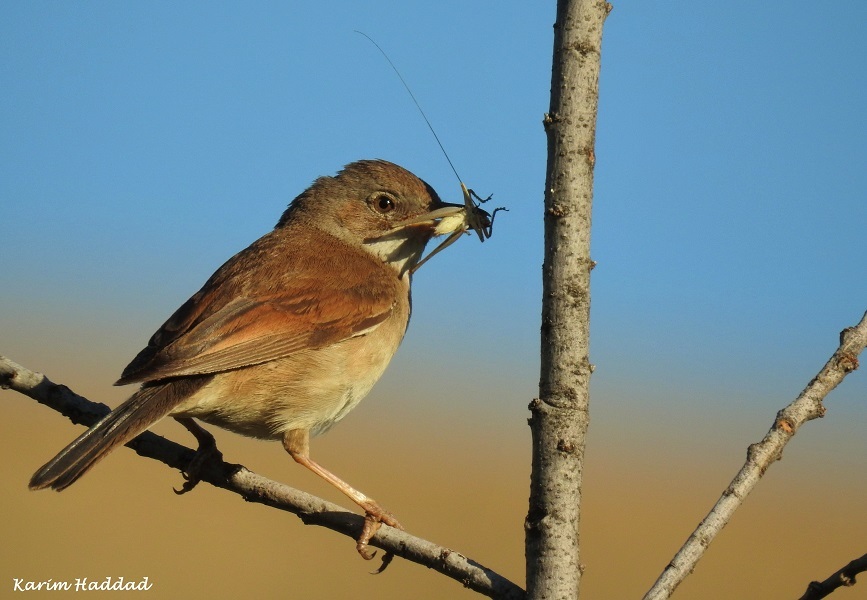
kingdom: Animalia
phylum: Chordata
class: Aves
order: Passeriformes
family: Sylviidae
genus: Sylvia
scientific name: Sylvia communis
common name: Common whitethroat
